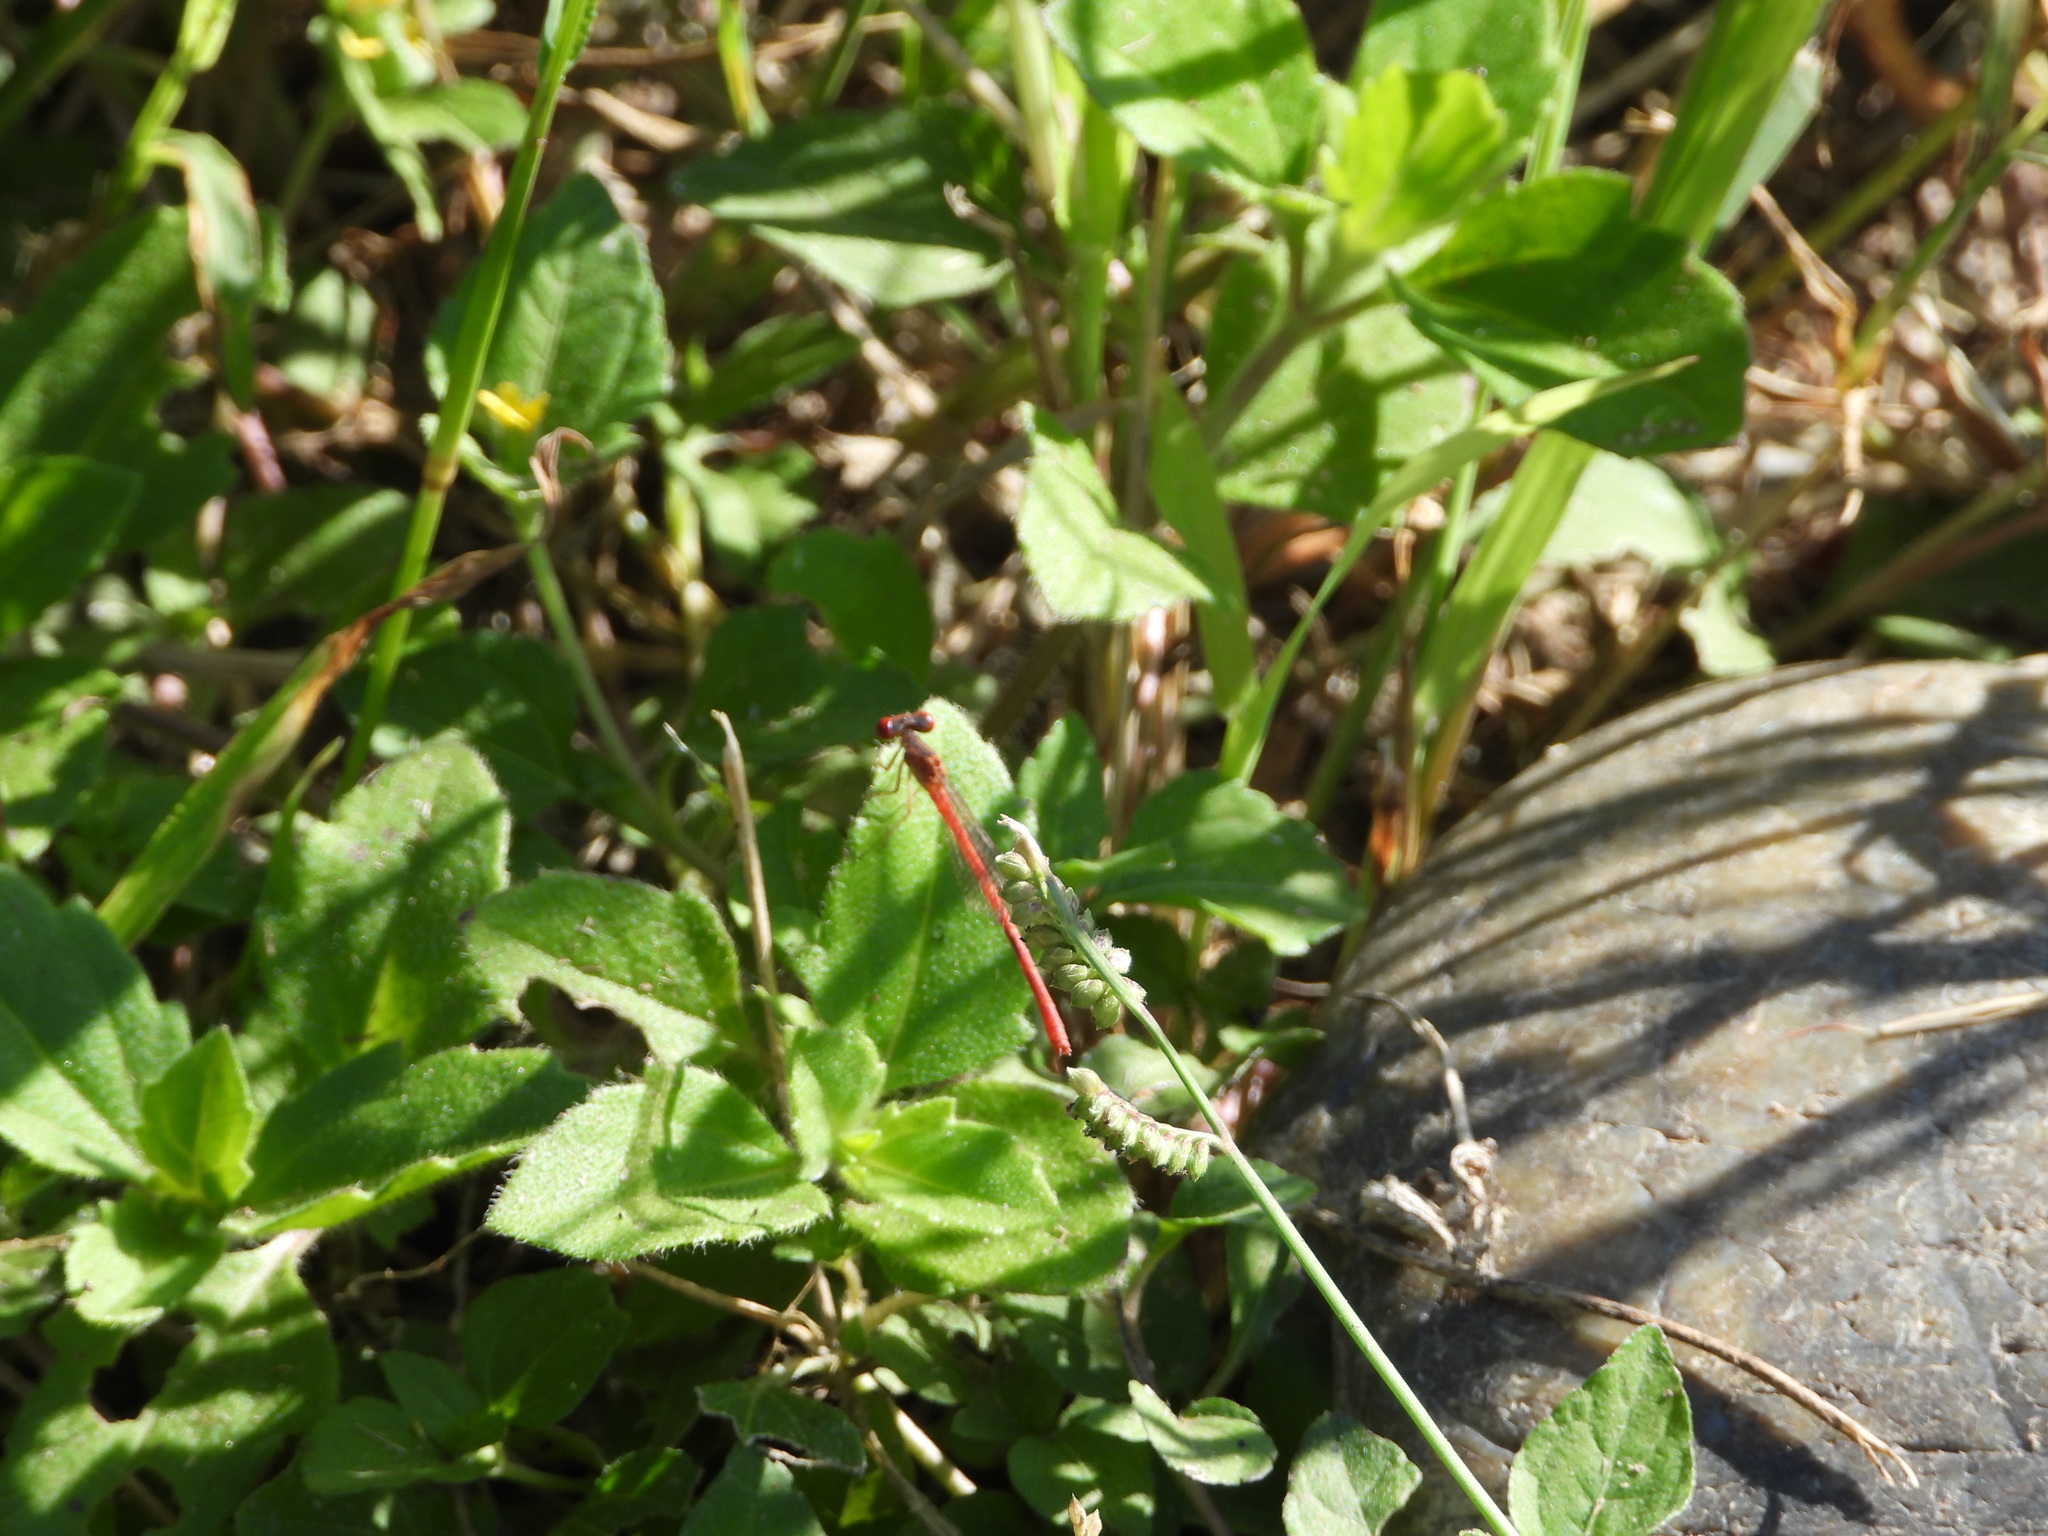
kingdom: Animalia
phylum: Arthropoda
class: Insecta
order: Odonata
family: Coenagrionidae
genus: Telebasis
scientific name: Telebasis salva
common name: Desert firetail
